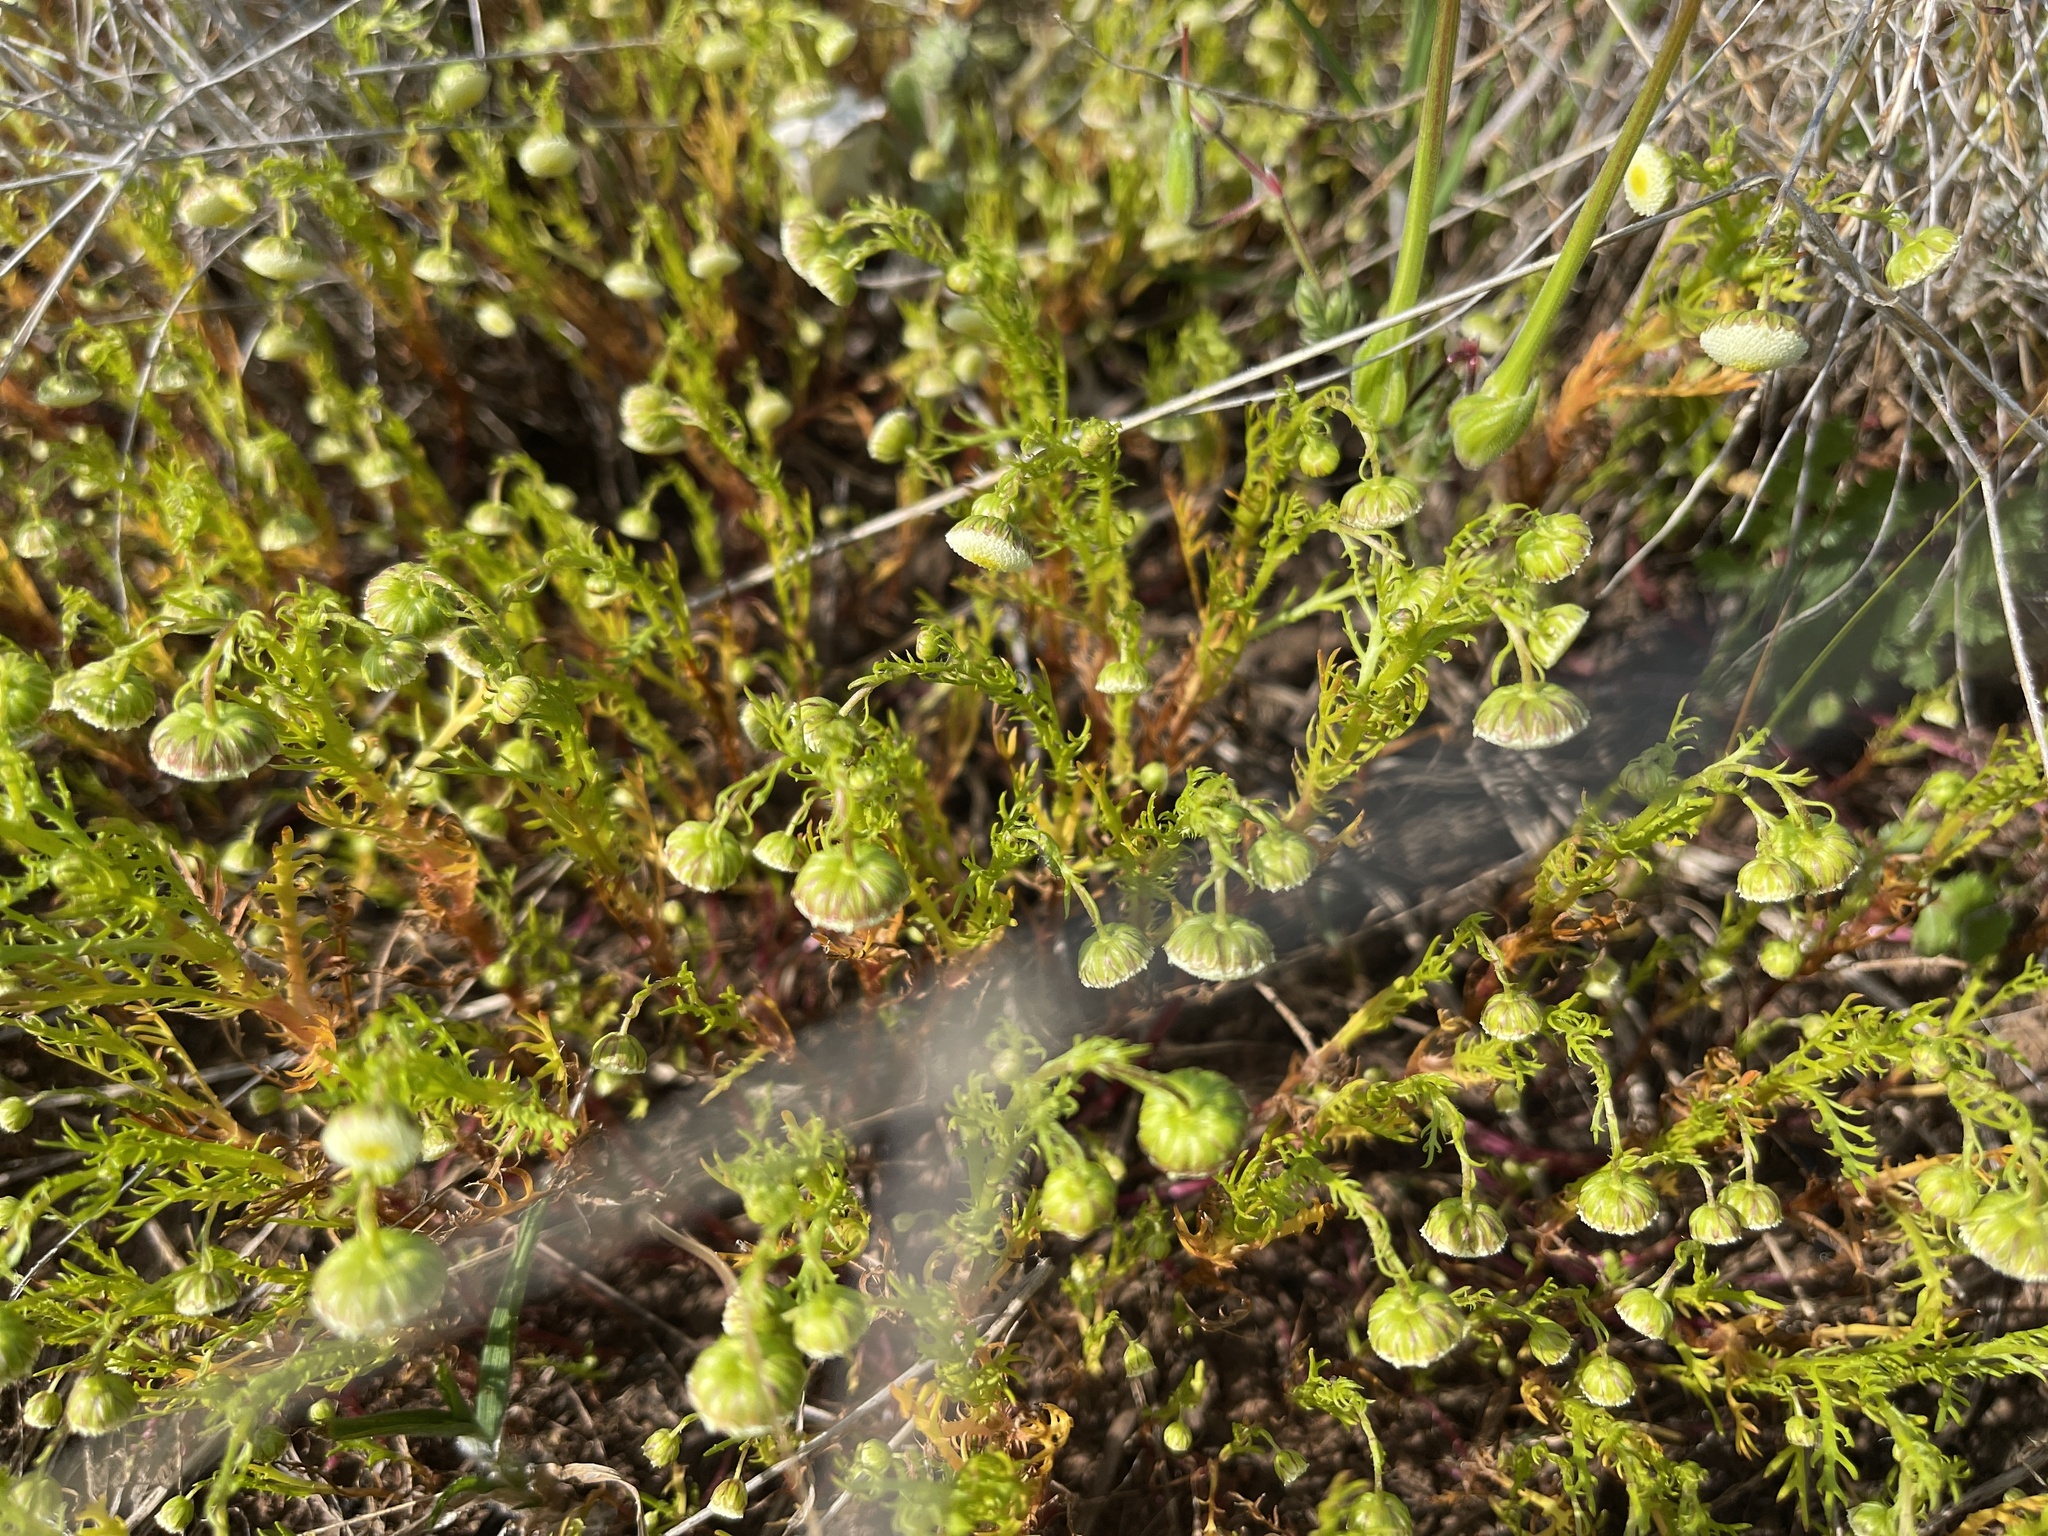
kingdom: Plantae
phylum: Tracheophyta
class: Magnoliopsida
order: Asterales
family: Asteraceae
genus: Cotula
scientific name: Cotula bipinnata
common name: Ferny buttonweed
